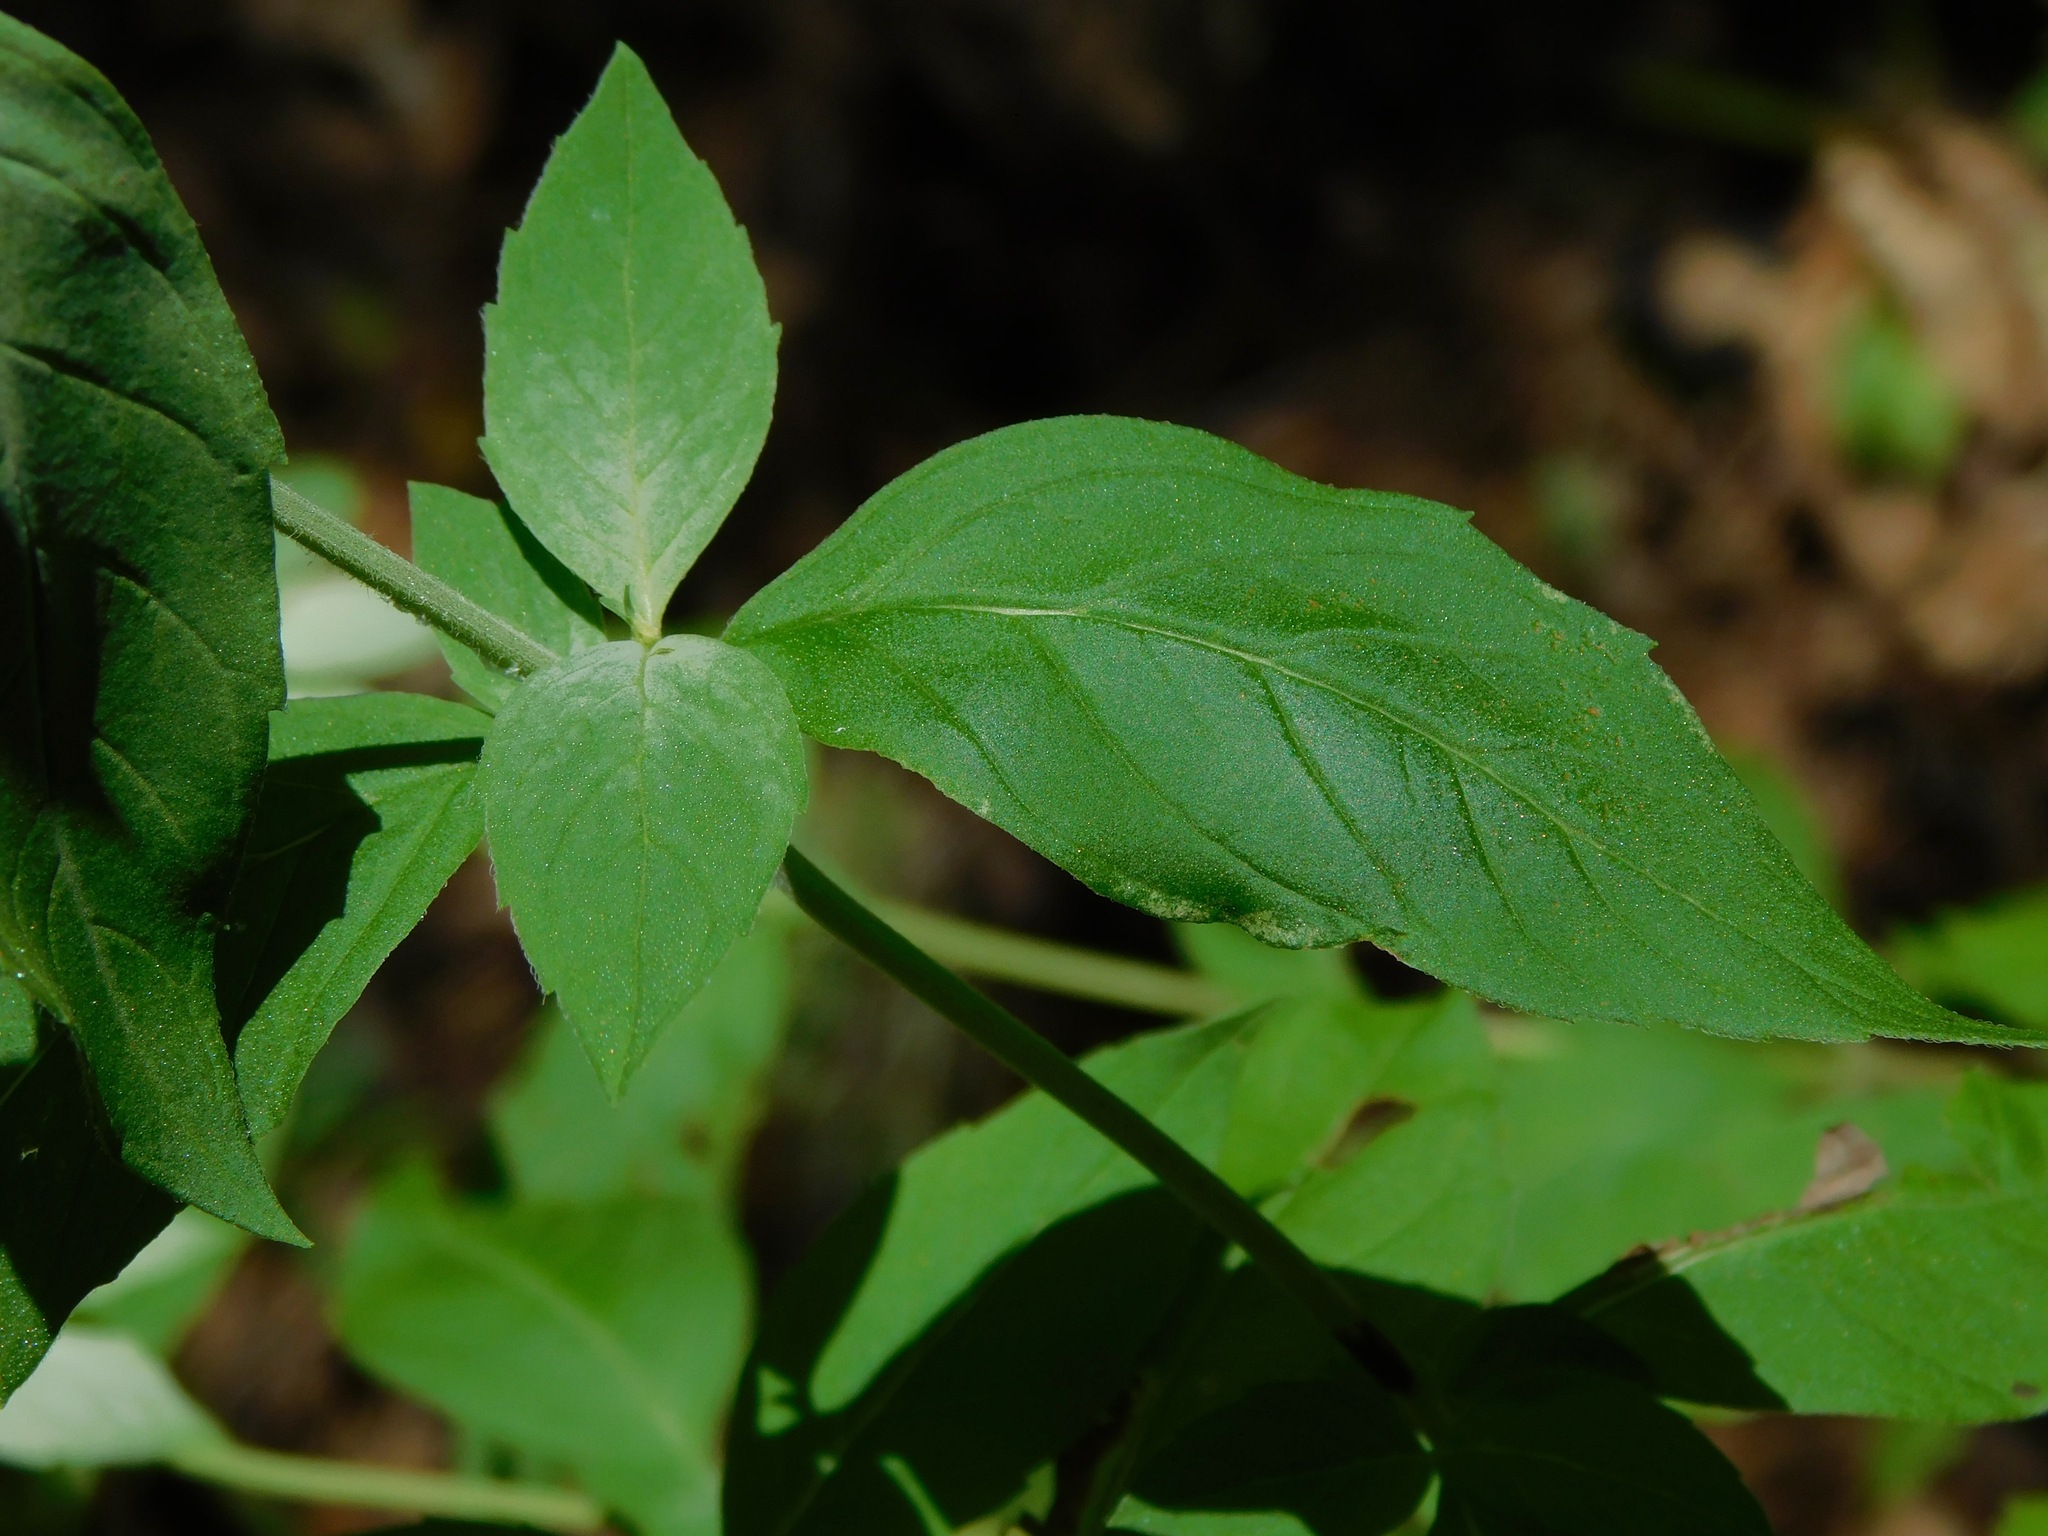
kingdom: Plantae
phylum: Tracheophyta
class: Magnoliopsida
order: Lamiales
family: Lamiaceae
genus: Pycnanthemum
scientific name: Pycnanthemum montanum
